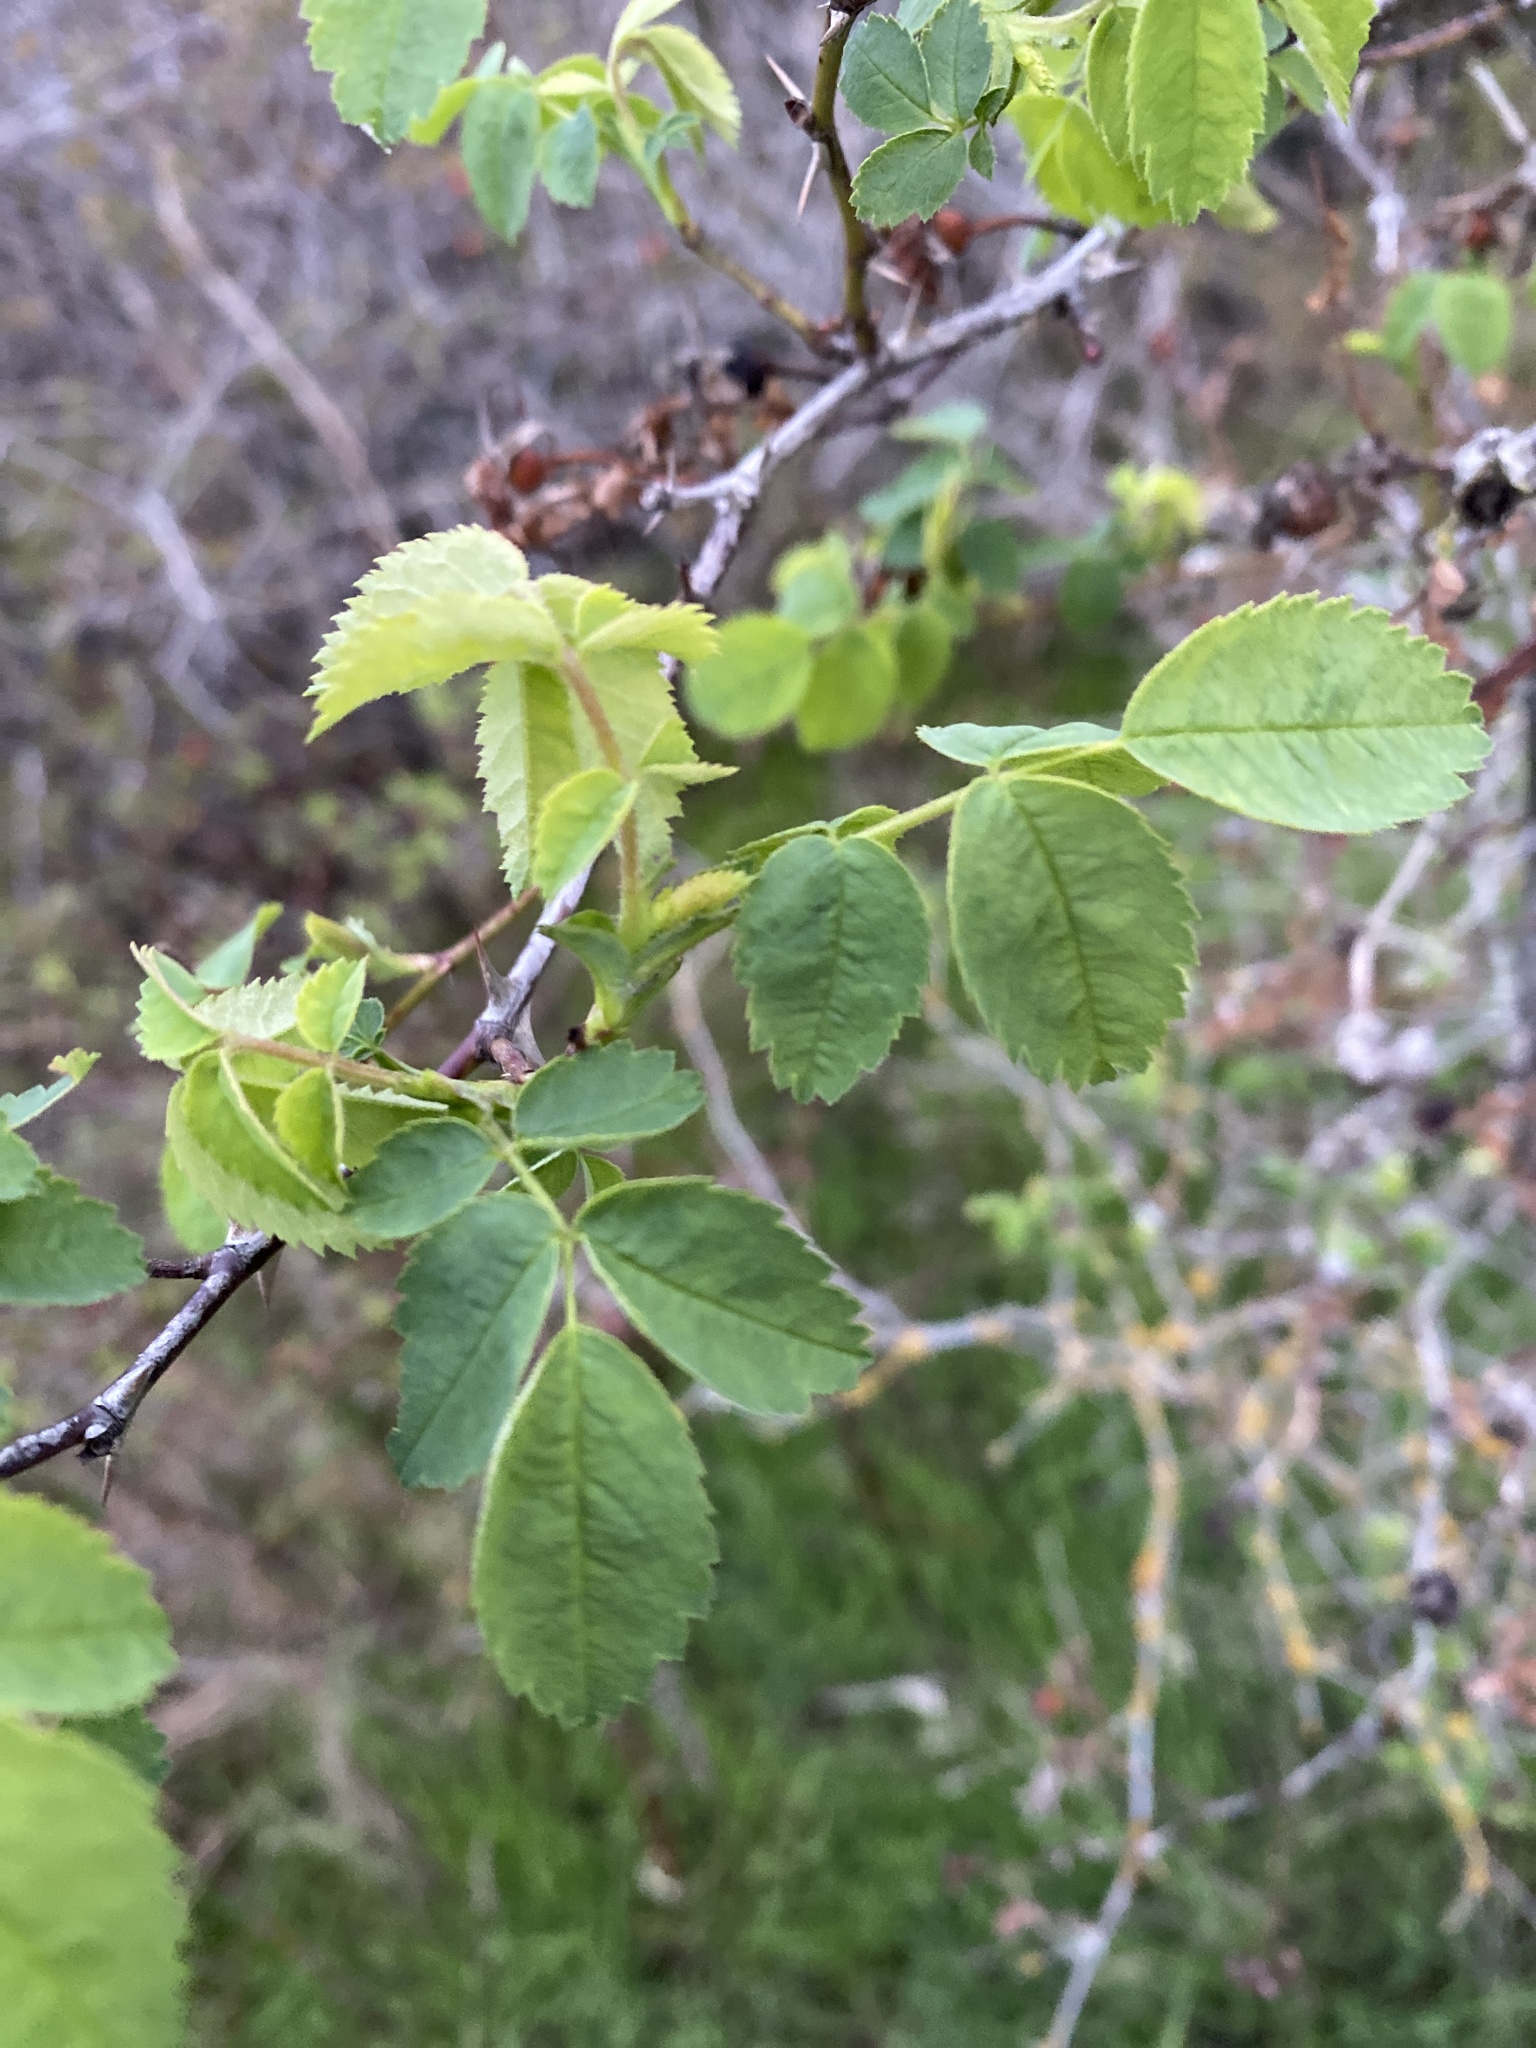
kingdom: Plantae
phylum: Tracheophyta
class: Magnoliopsida
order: Rosales
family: Rosaceae
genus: Rosa
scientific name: Rosa nutkana
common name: Nootka rose
